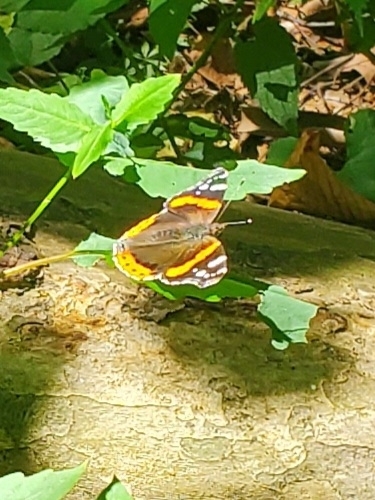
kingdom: Animalia
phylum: Arthropoda
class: Insecta
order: Lepidoptera
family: Nymphalidae
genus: Vanessa
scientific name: Vanessa atalanta
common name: Red admiral
